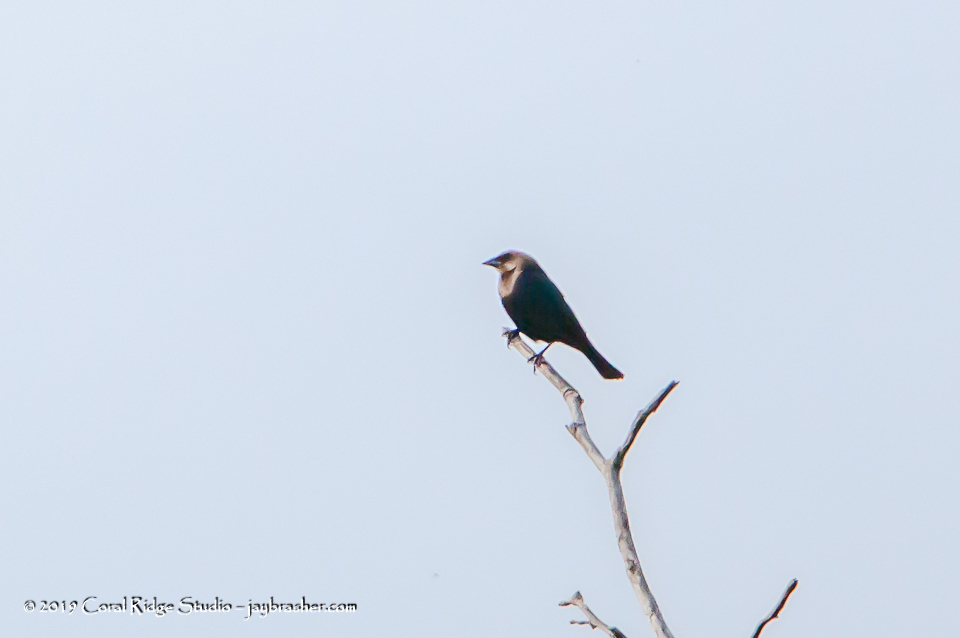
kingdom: Animalia
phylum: Chordata
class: Aves
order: Passeriformes
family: Icteridae
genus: Molothrus
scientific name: Molothrus ater
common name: Brown-headed cowbird
